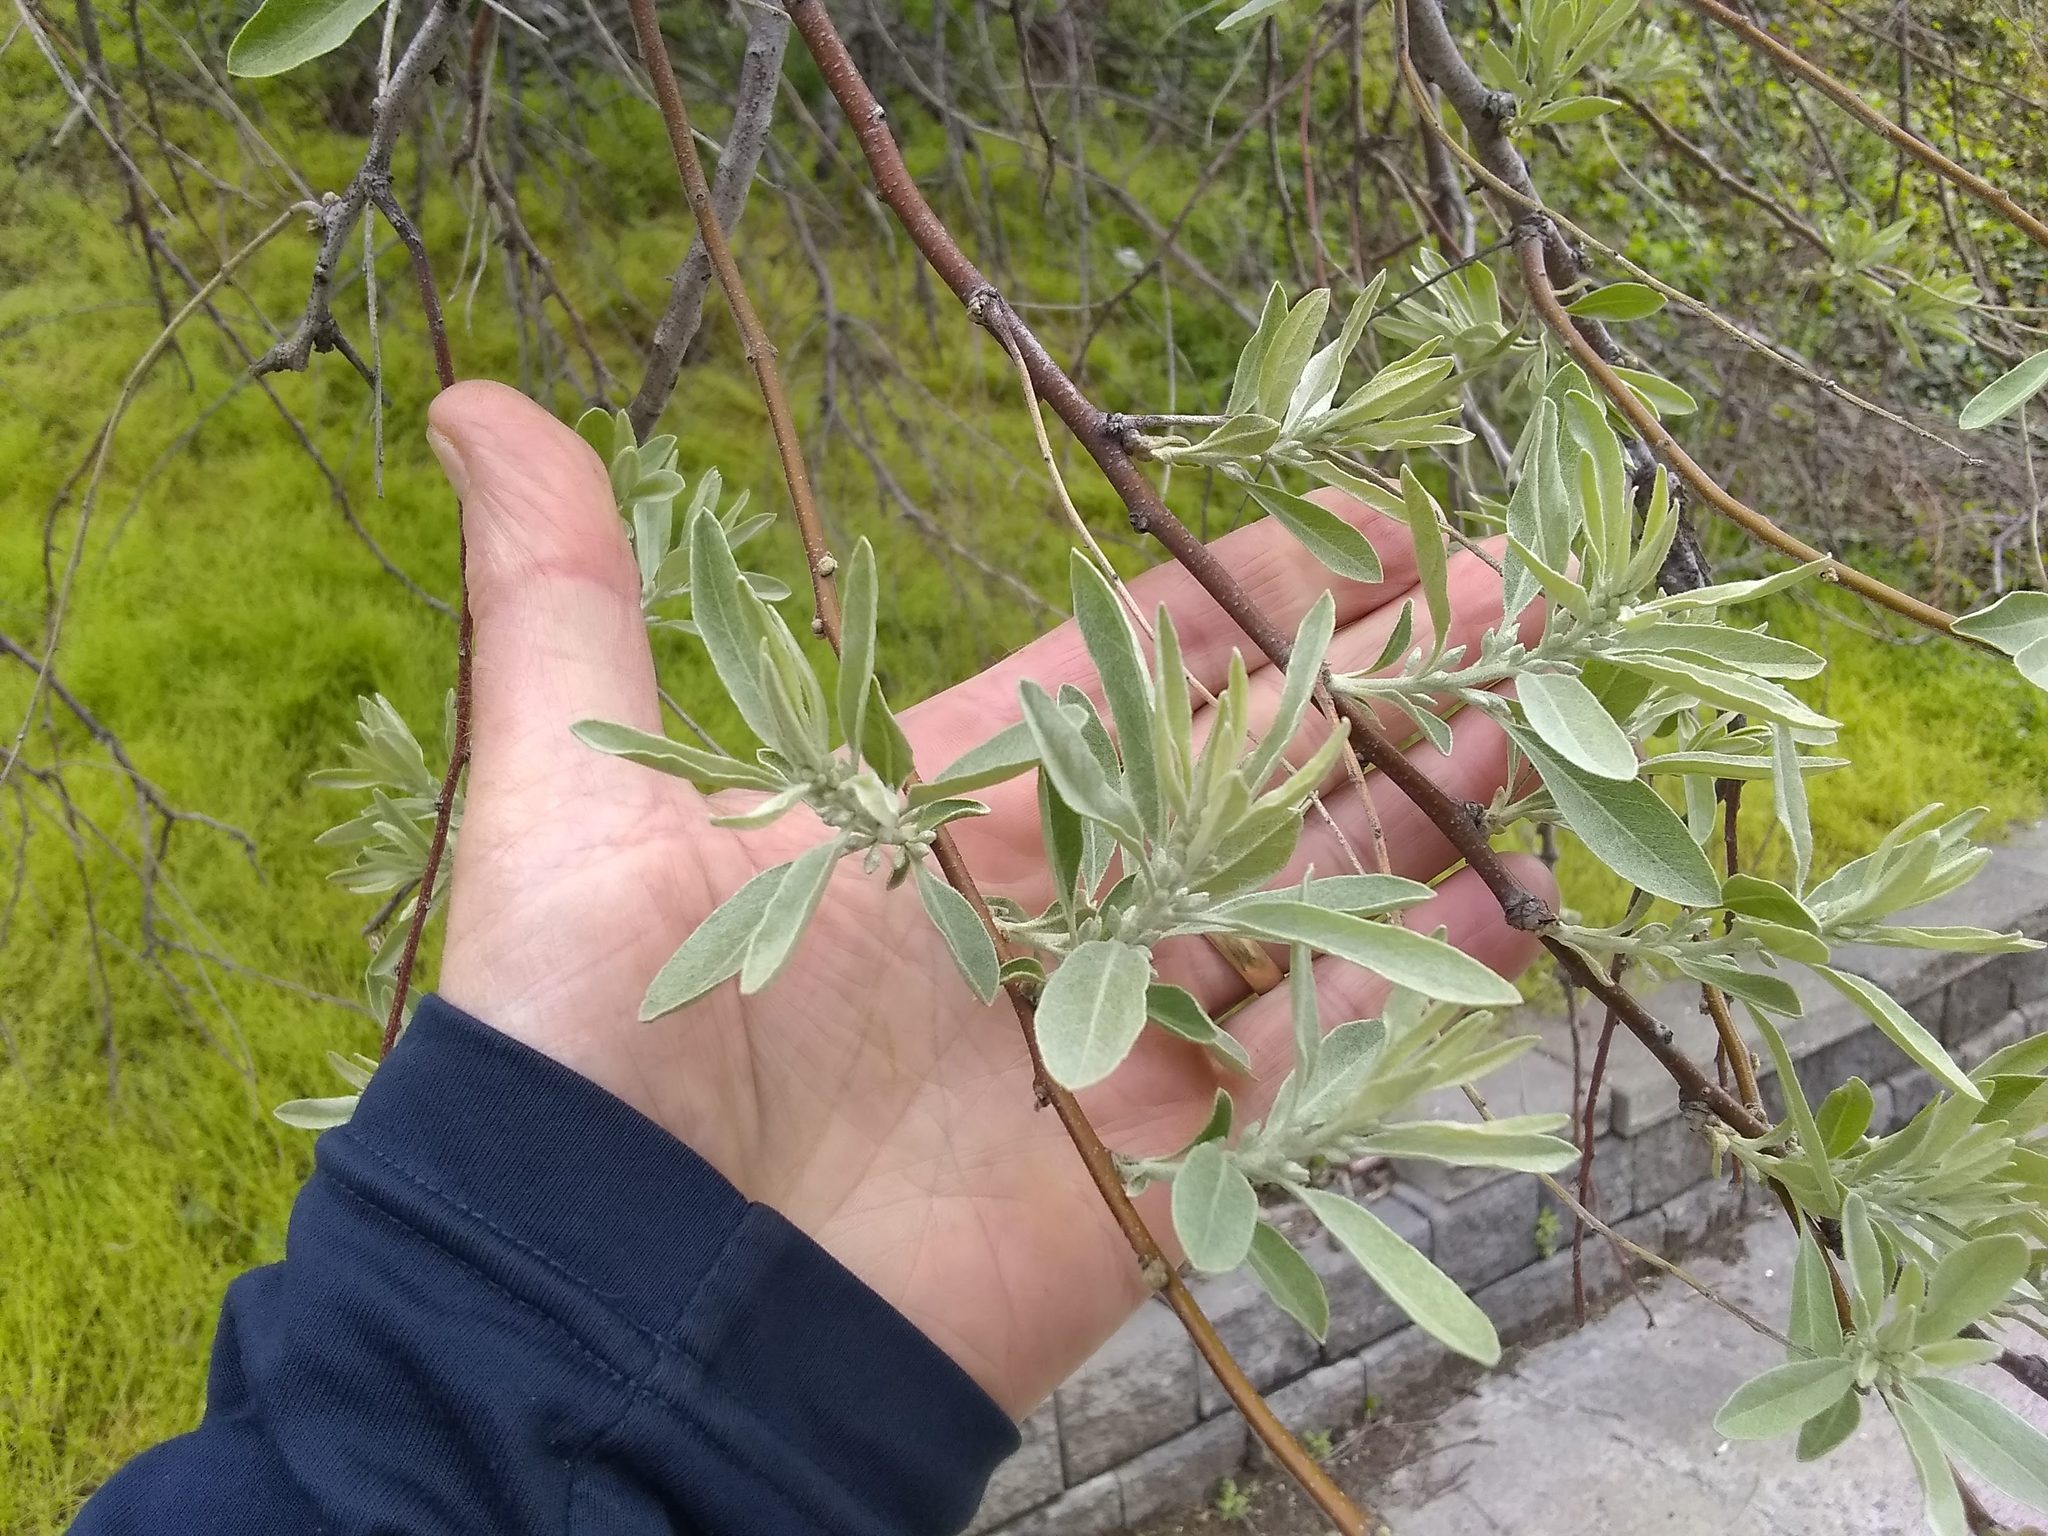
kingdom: Plantae
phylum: Tracheophyta
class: Magnoliopsida
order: Rosales
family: Elaeagnaceae
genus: Elaeagnus
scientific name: Elaeagnus angustifolia
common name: Russian olive
